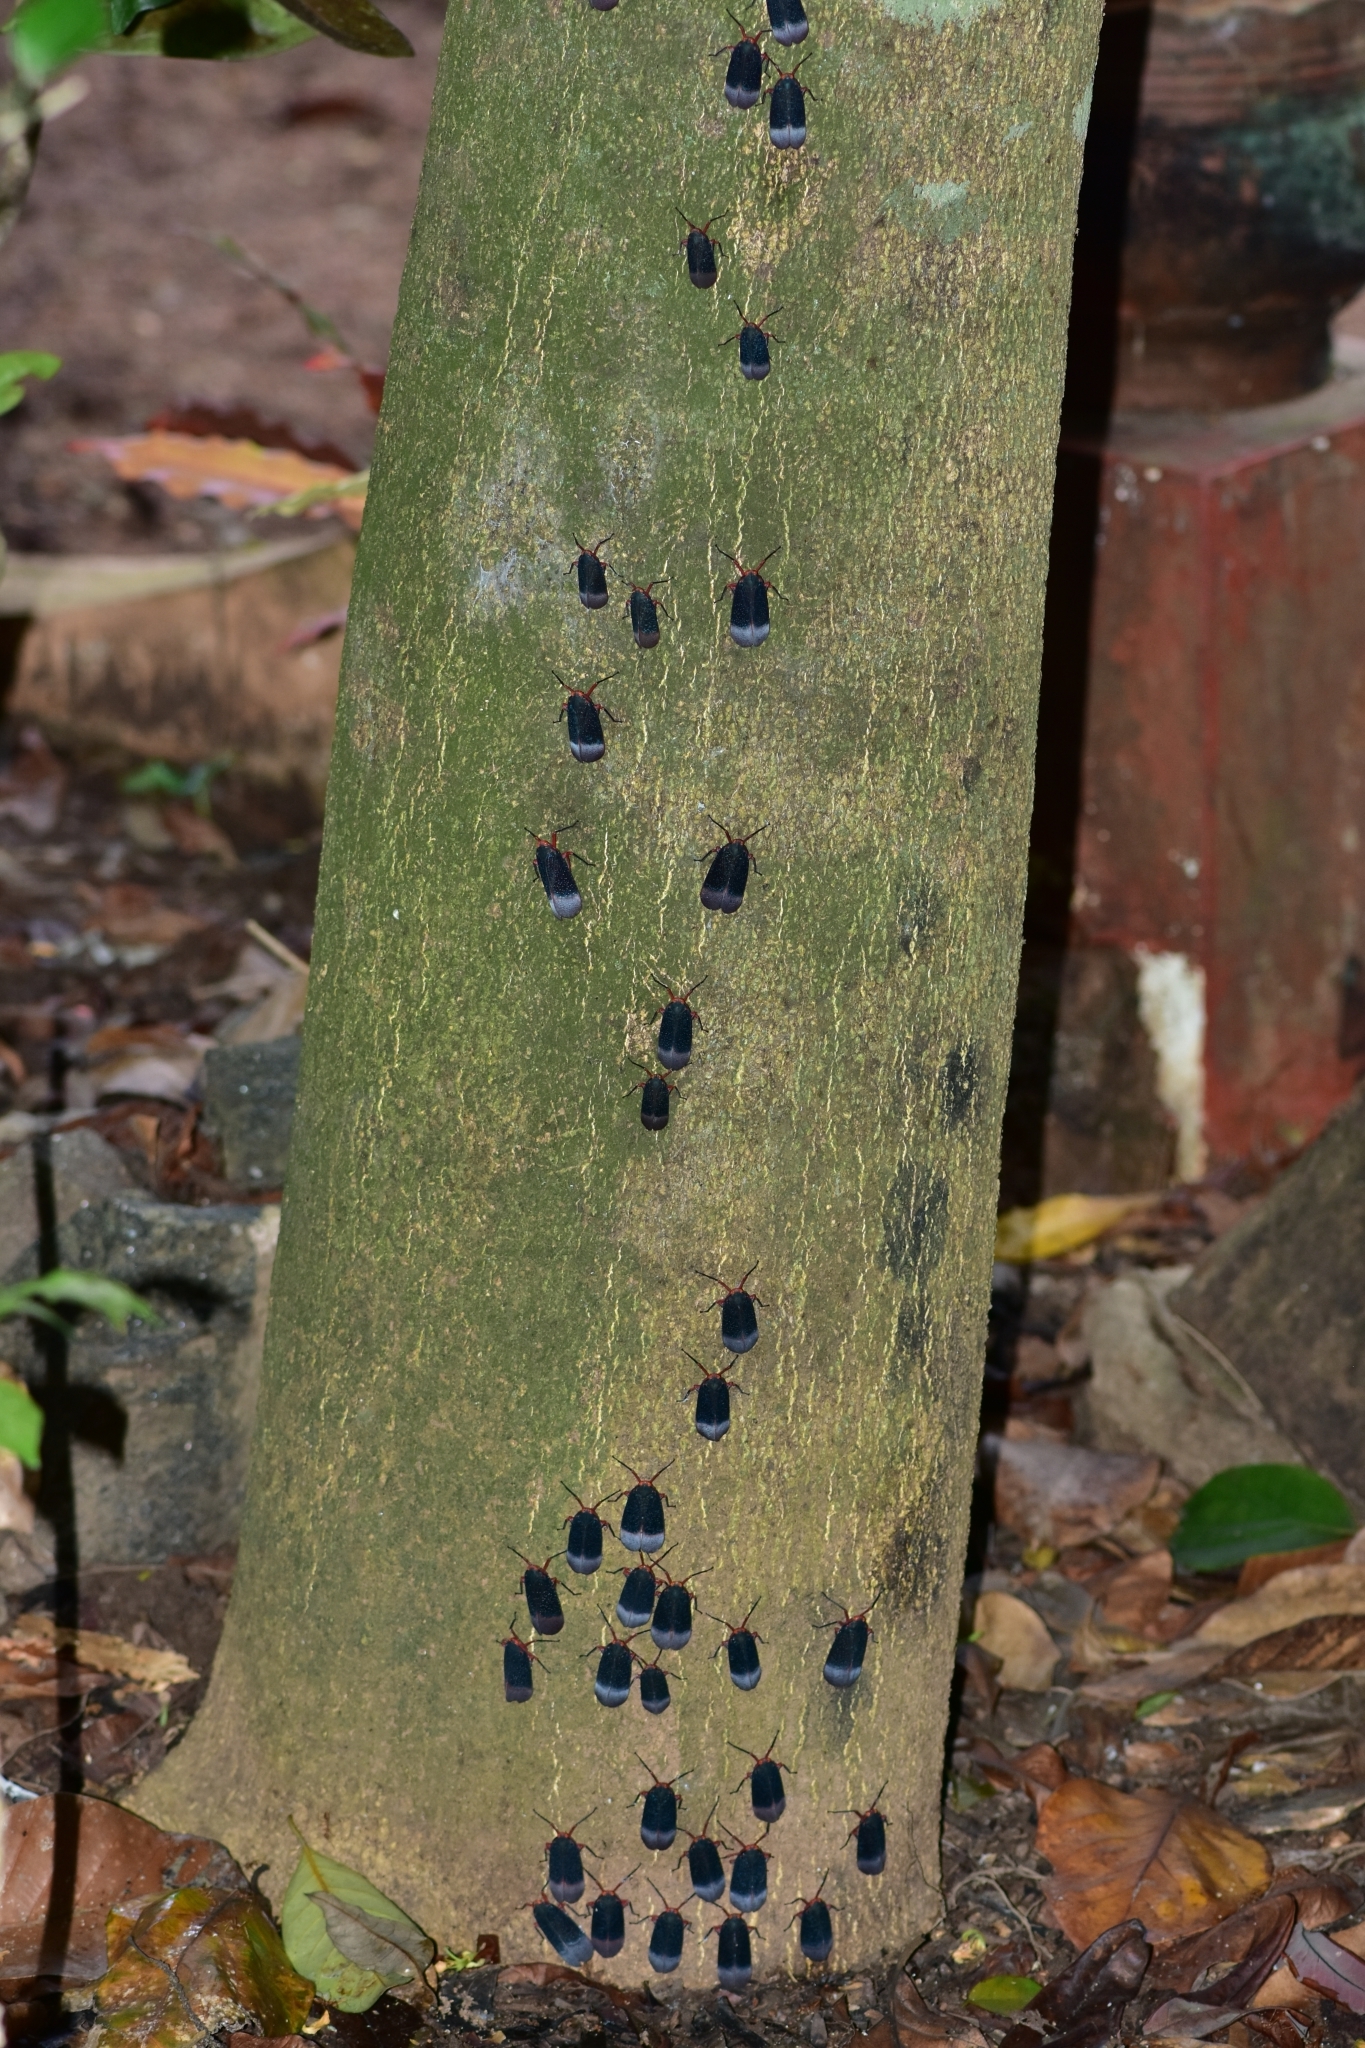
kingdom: Animalia
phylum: Arthropoda
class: Insecta
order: Hemiptera
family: Fulgoridae
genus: Kalidasa
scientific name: Kalidasa lanata
